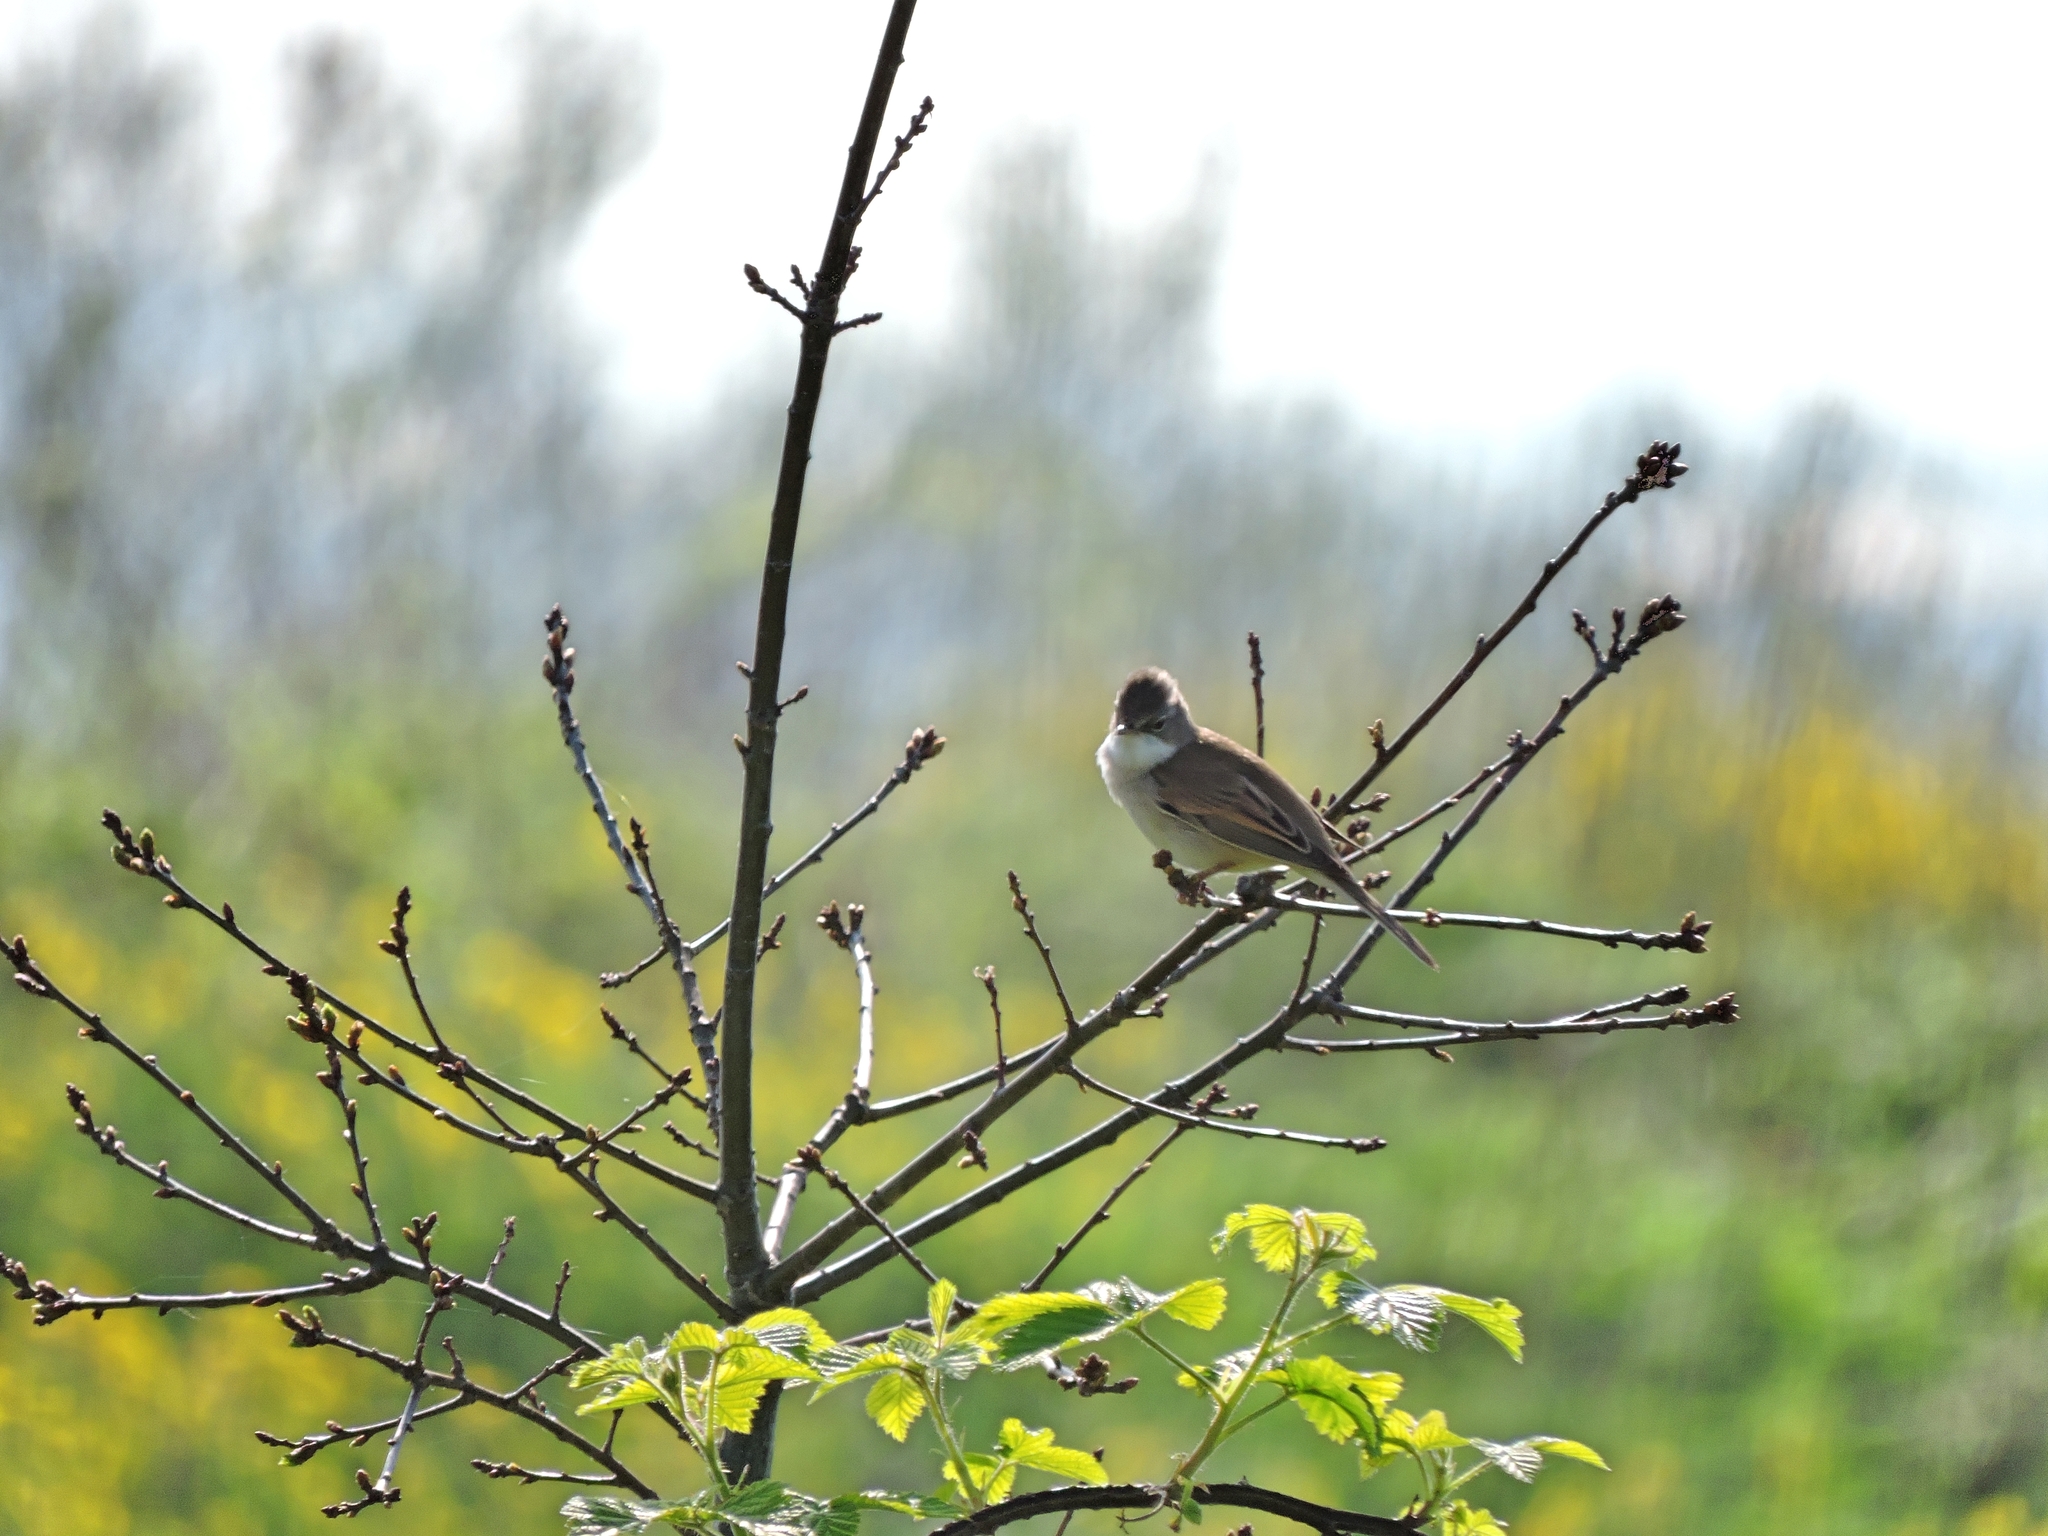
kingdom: Animalia
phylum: Chordata
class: Aves
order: Passeriformes
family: Sylviidae
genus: Sylvia
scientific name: Sylvia communis
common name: Common whitethroat
